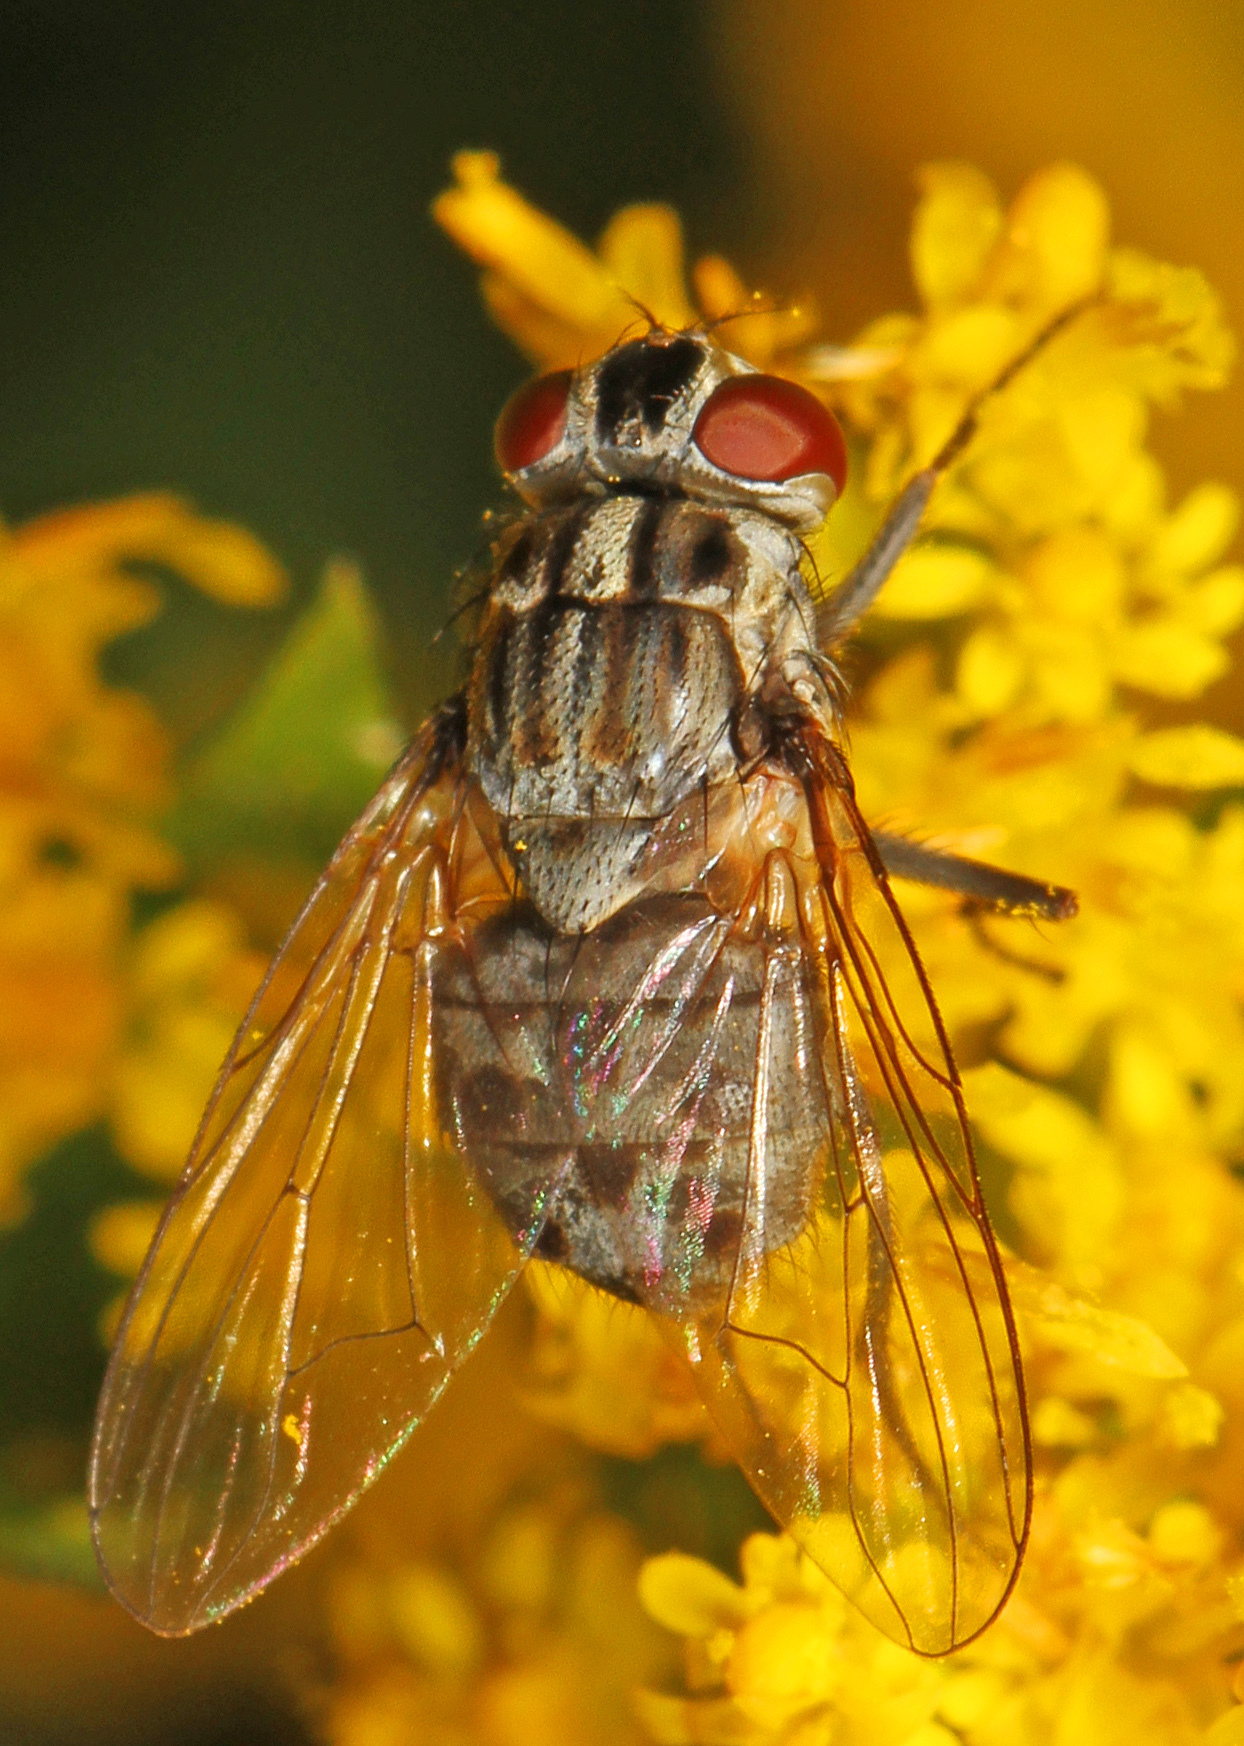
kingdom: Animalia
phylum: Arthropoda
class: Insecta
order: Diptera
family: Muscidae
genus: Stomoxys
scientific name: Stomoxys calcitrans
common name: Stable fly
